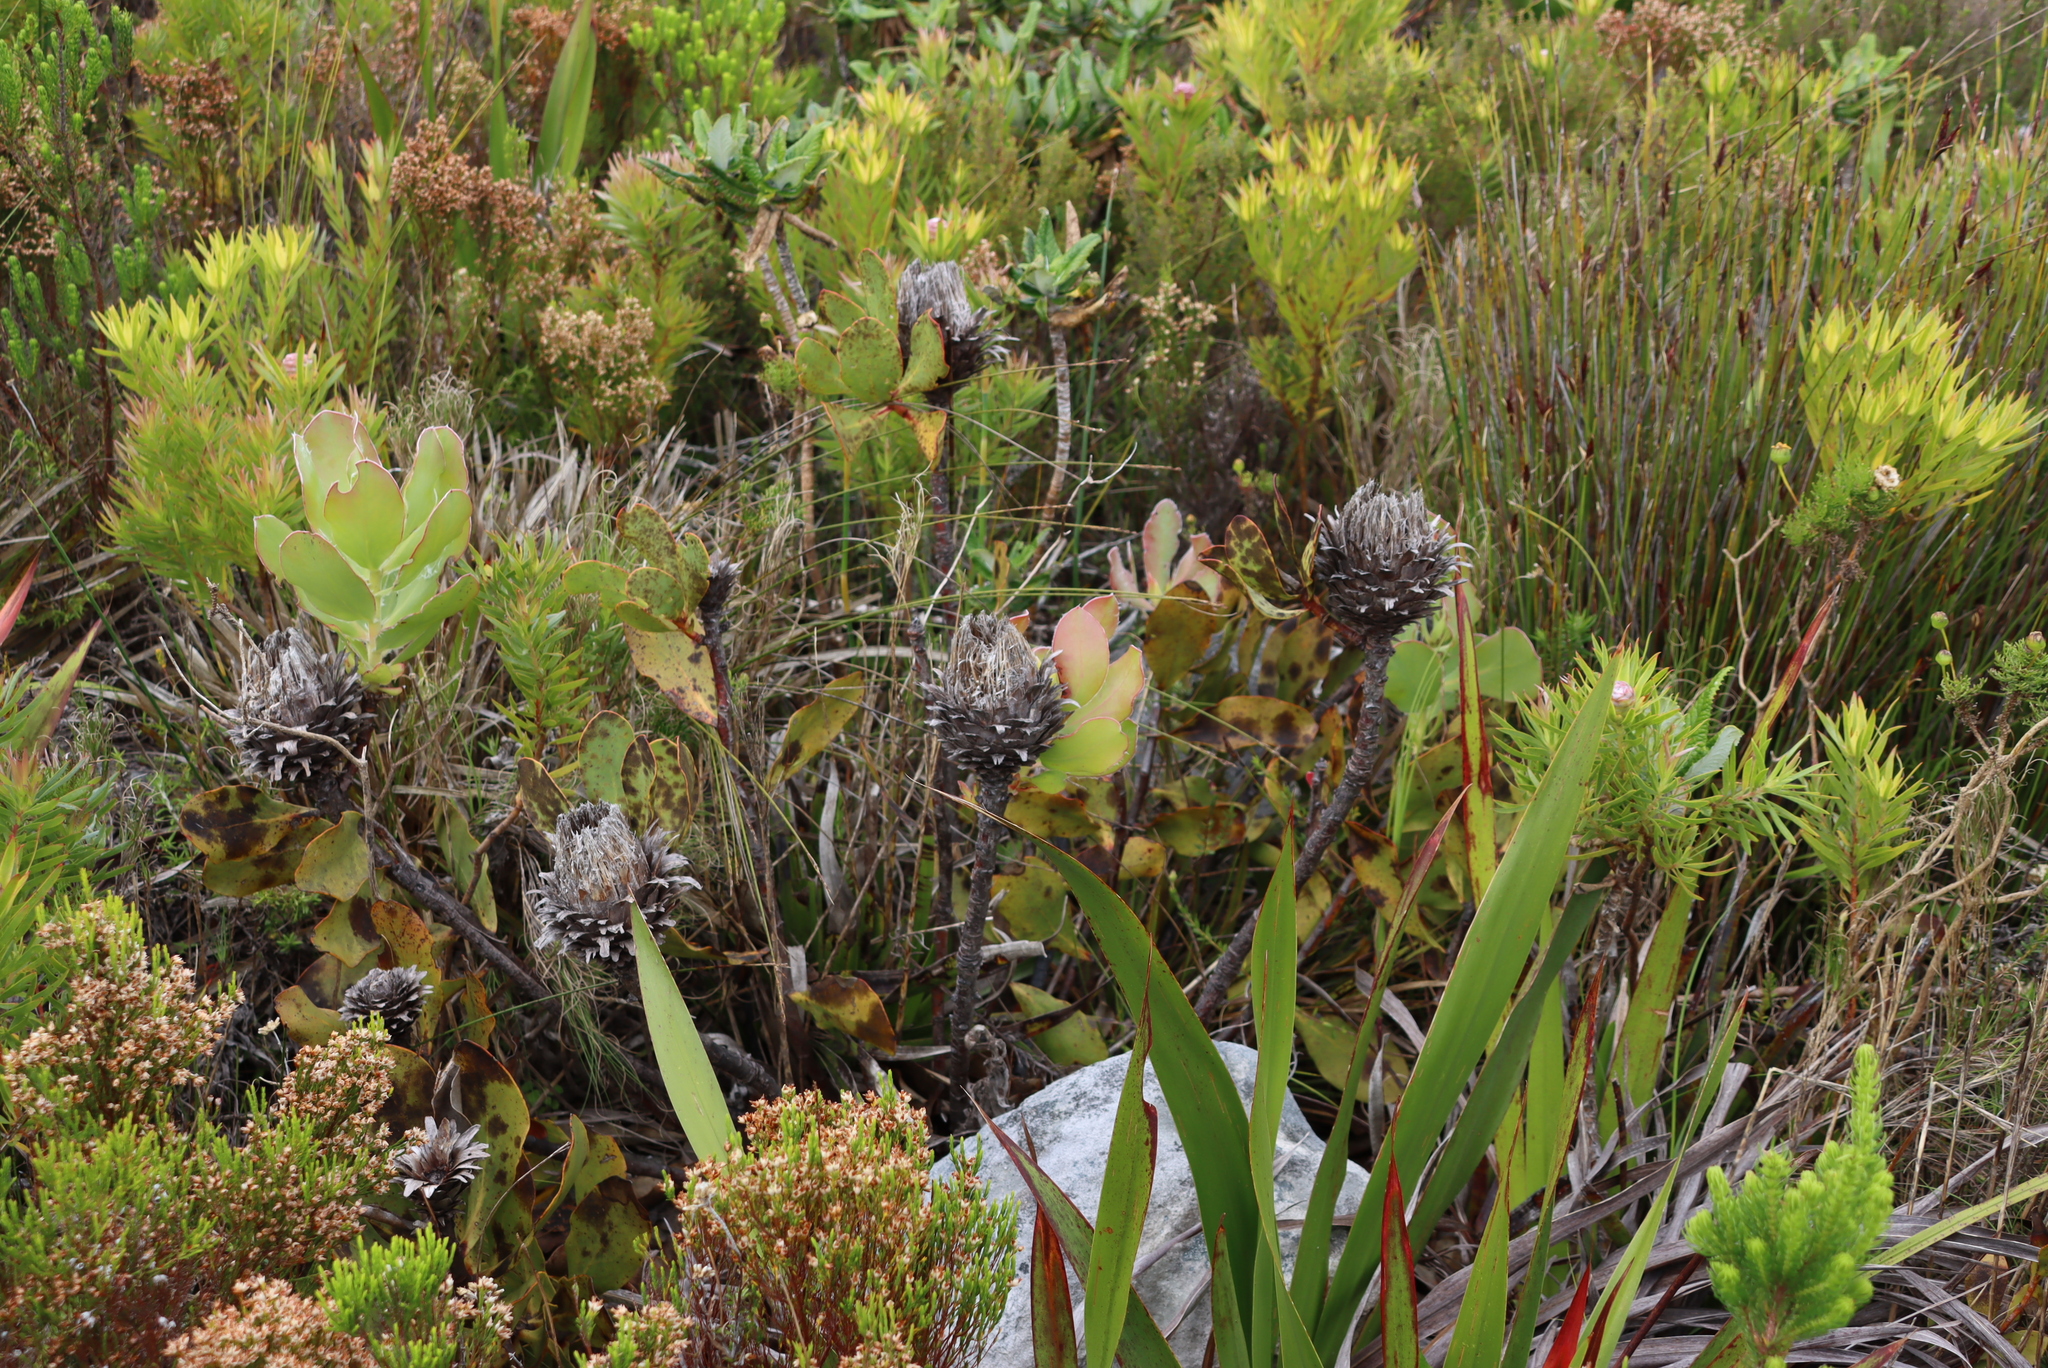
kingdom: Plantae
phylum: Tracheophyta
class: Magnoliopsida
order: Proteales
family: Proteaceae
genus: Protea
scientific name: Protea speciosa
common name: Brown-beard sugarbush
